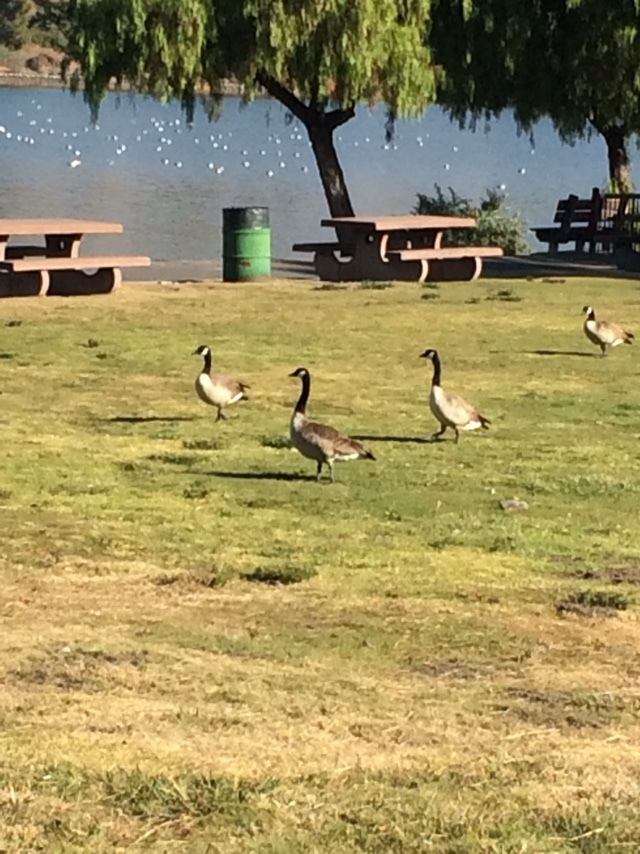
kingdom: Animalia
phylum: Chordata
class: Aves
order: Anseriformes
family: Anatidae
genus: Branta
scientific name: Branta canadensis
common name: Canada goose
